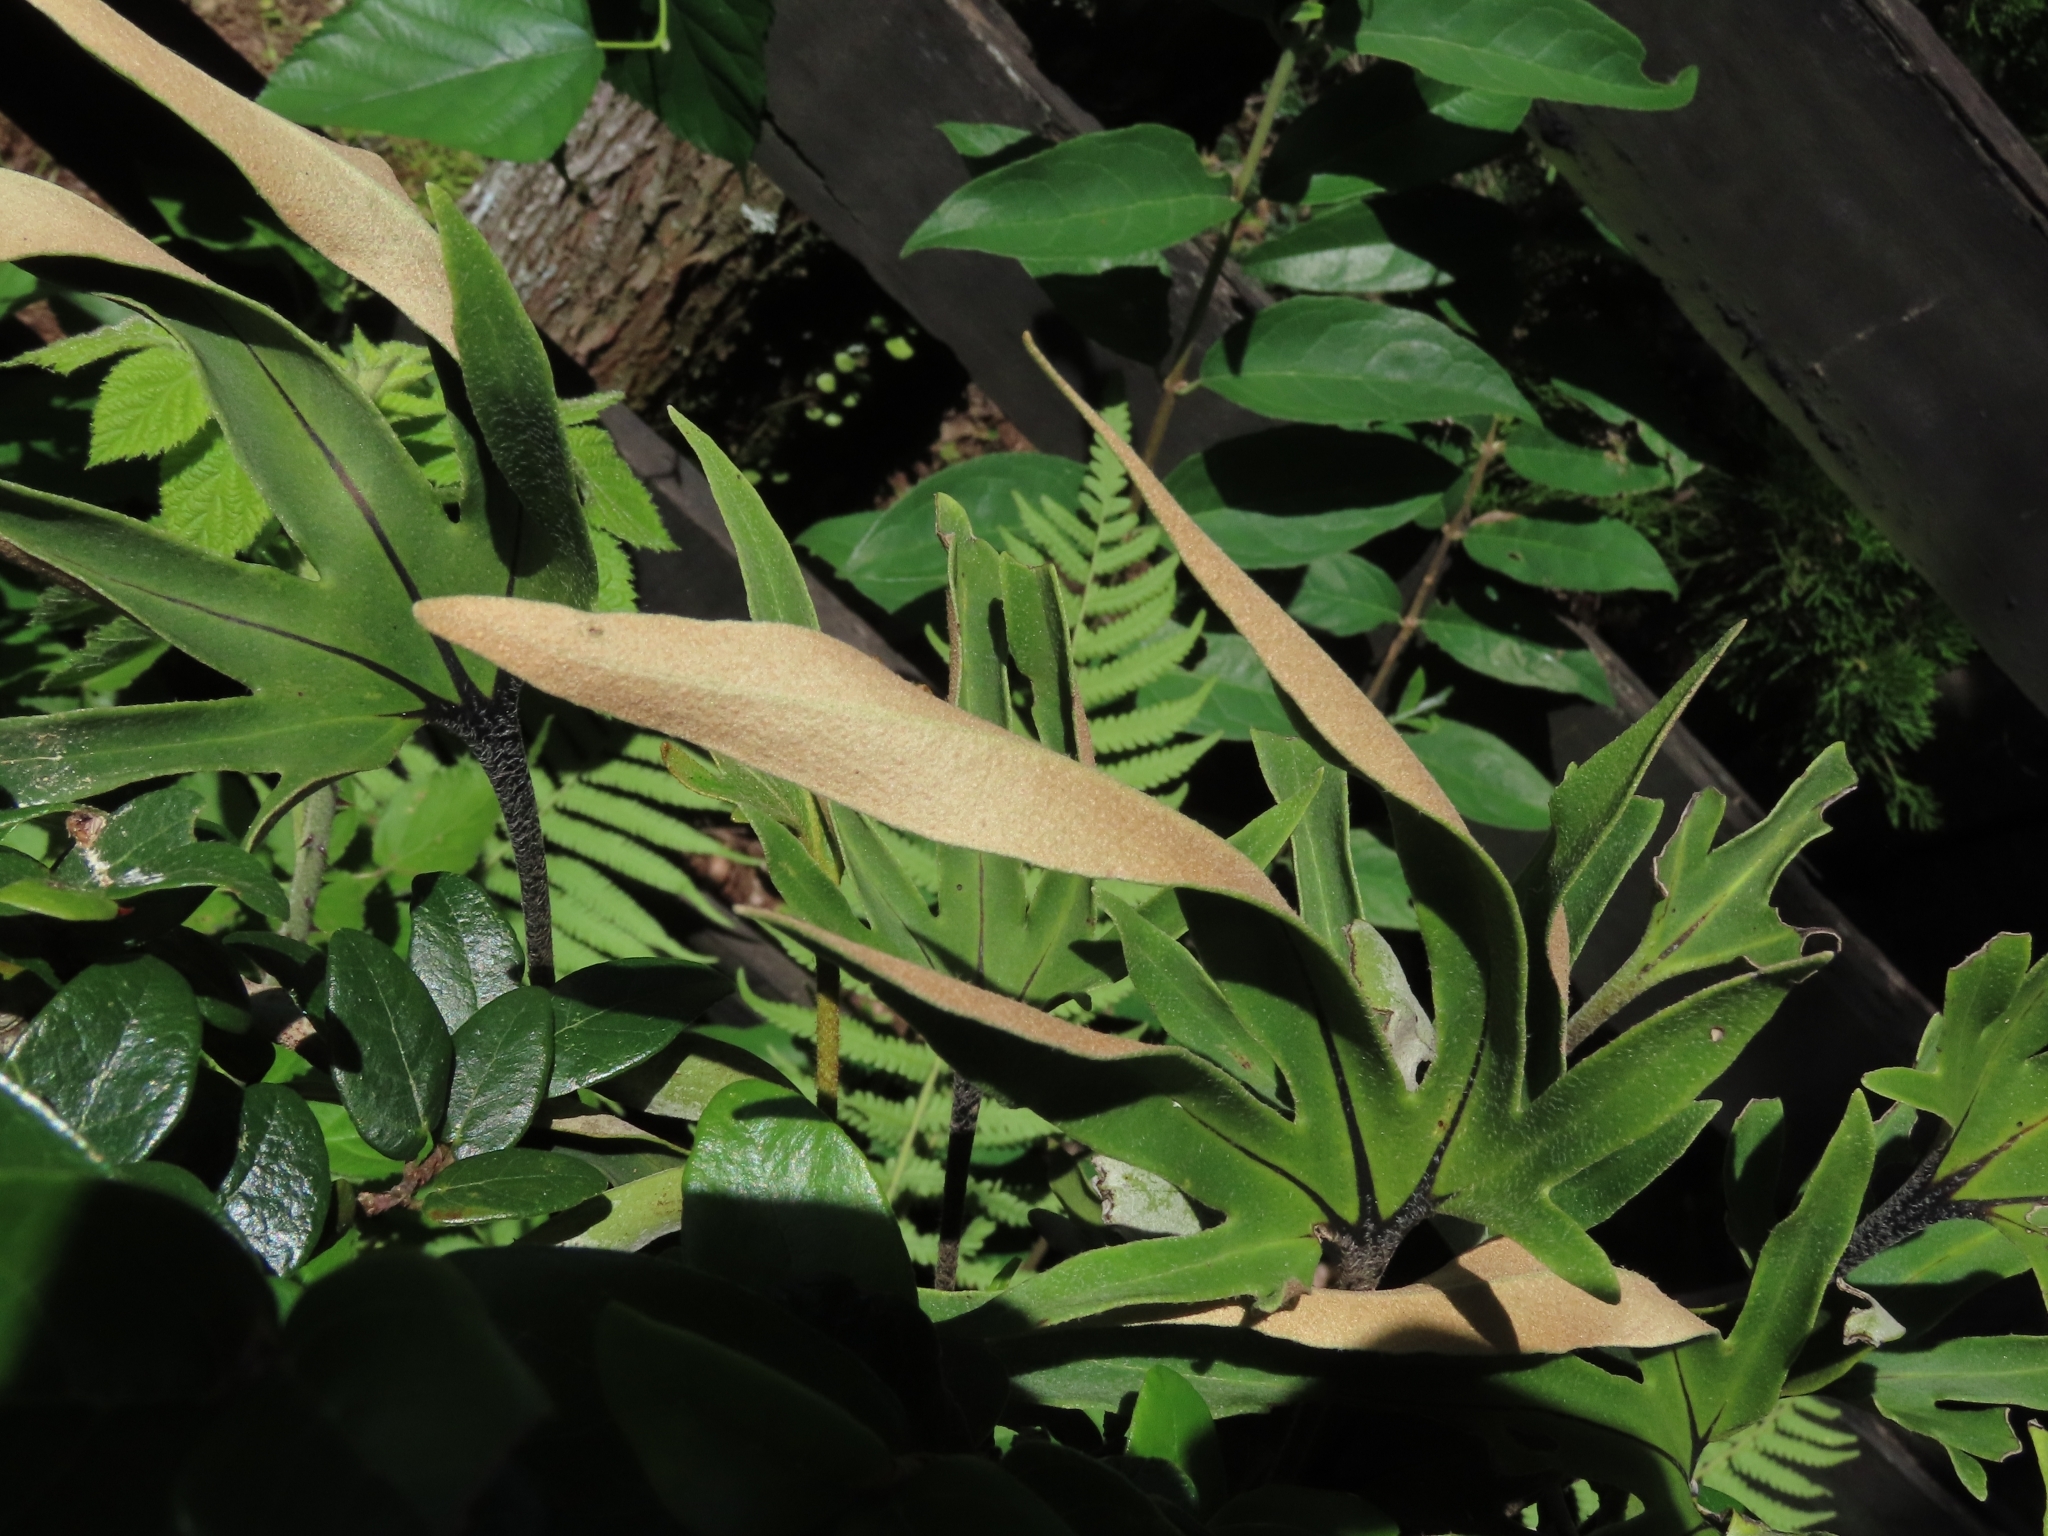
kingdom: Plantae
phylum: Tracheophyta
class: Polypodiopsida
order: Polypodiales
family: Polypodiaceae
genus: Pyrrosia
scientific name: Pyrrosia polydactyla
